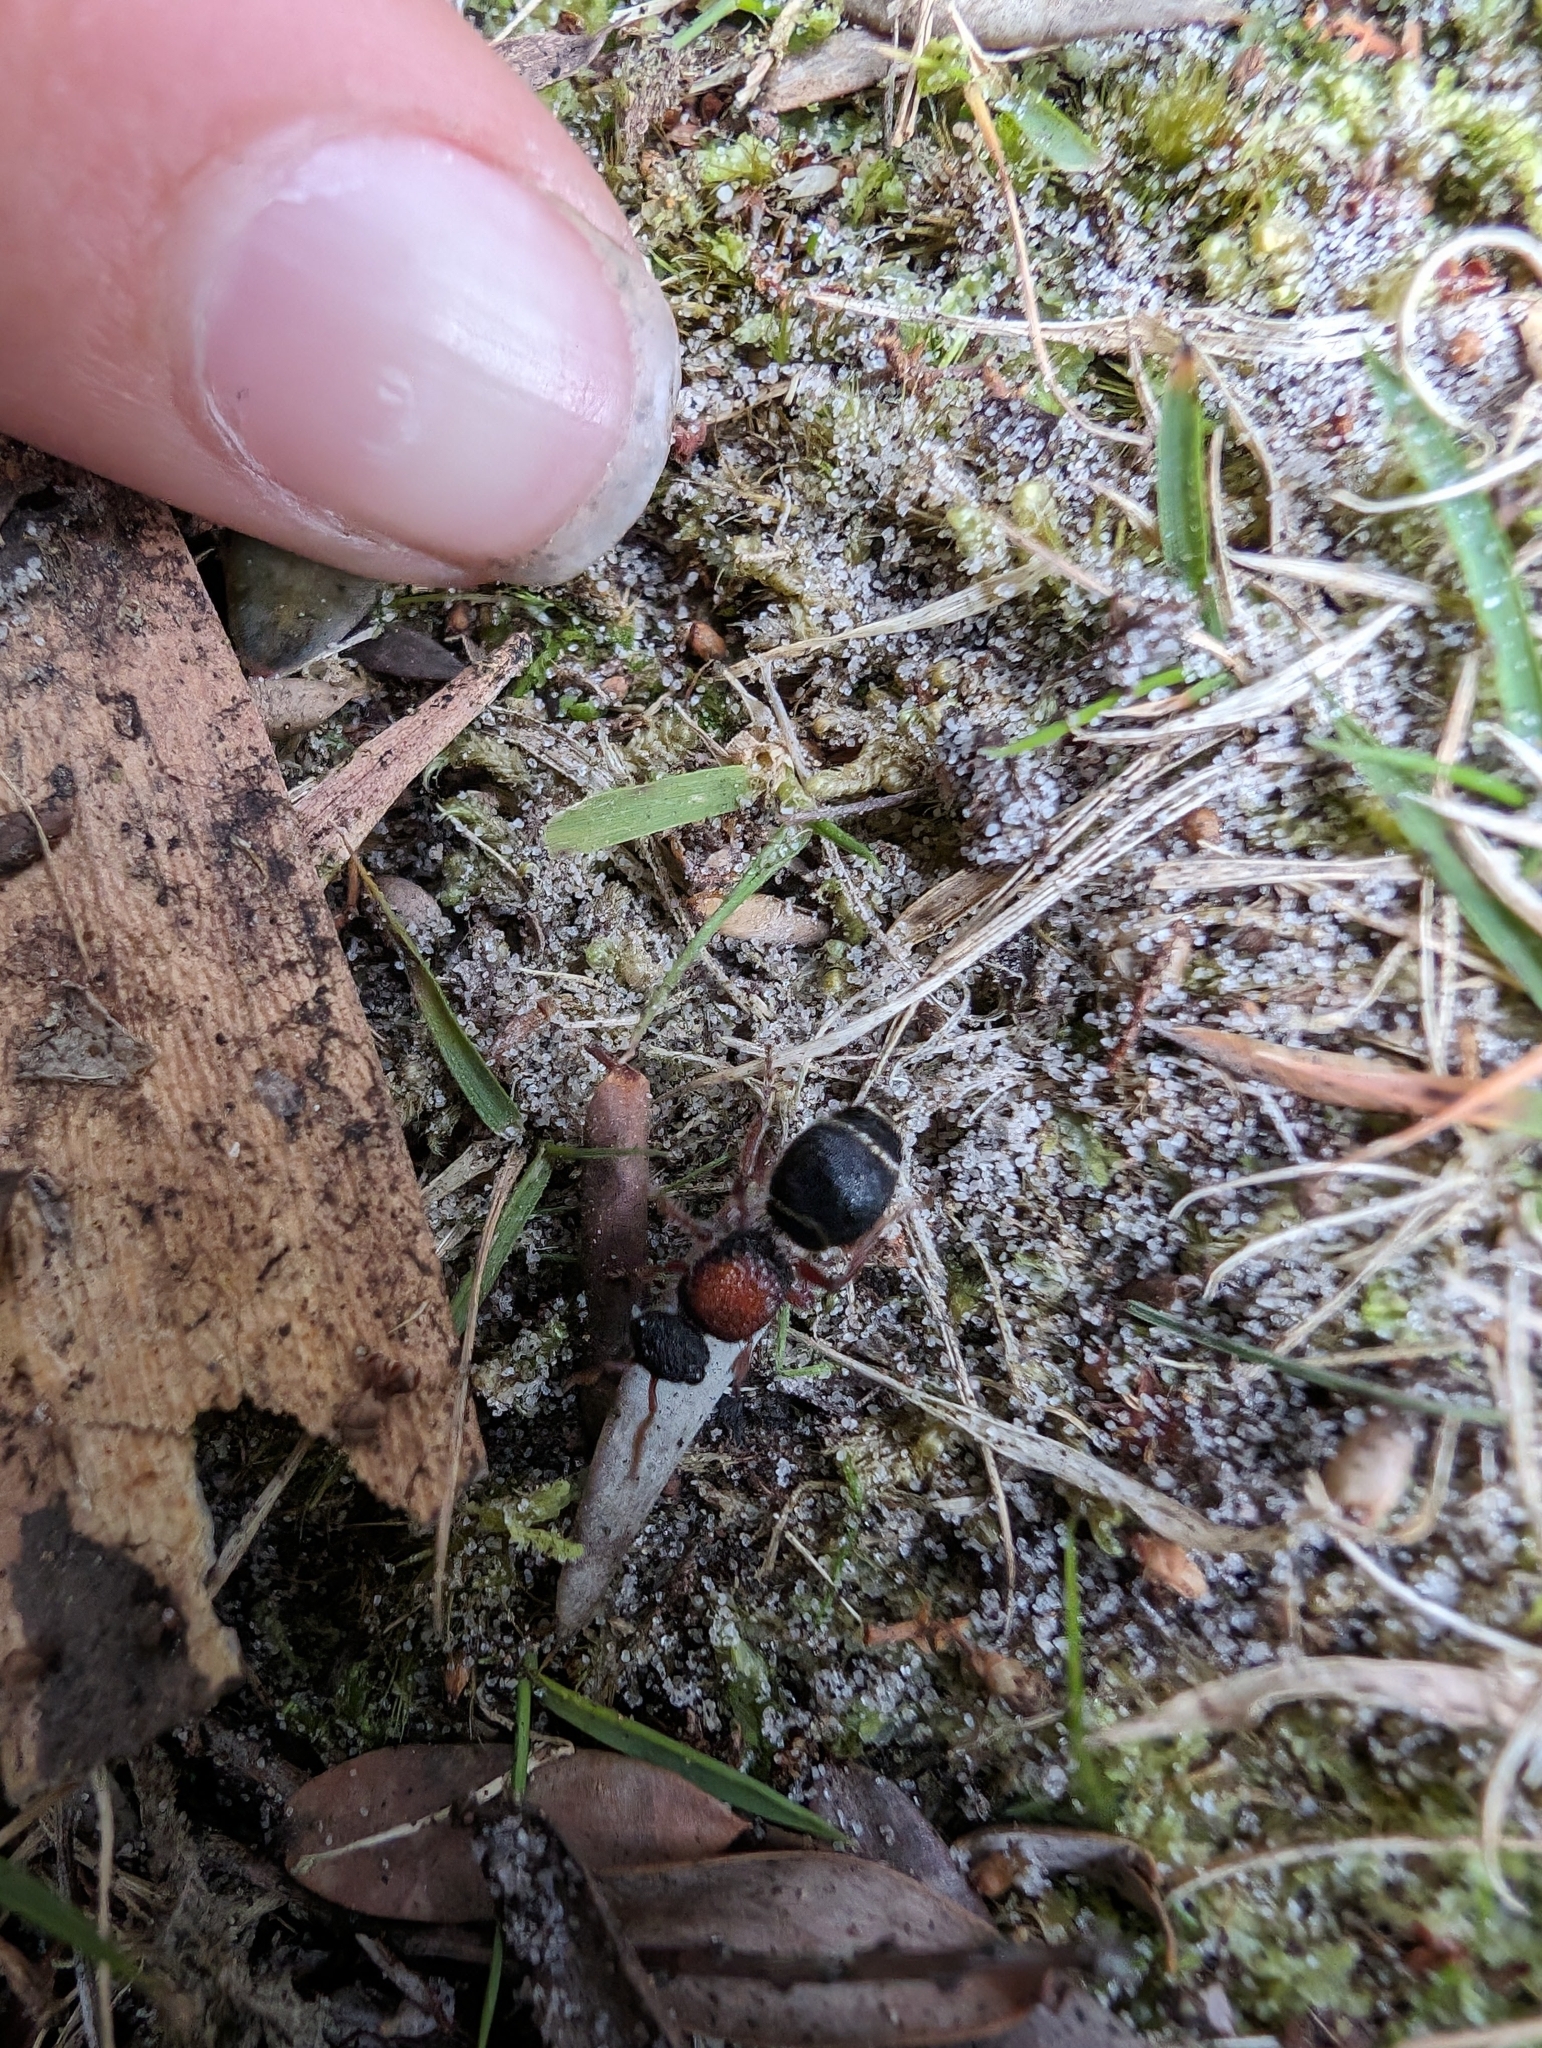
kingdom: Animalia
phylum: Arthropoda
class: Insecta
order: Hymenoptera
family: Mutillidae
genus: Ephutomorpha
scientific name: Ephutomorpha
